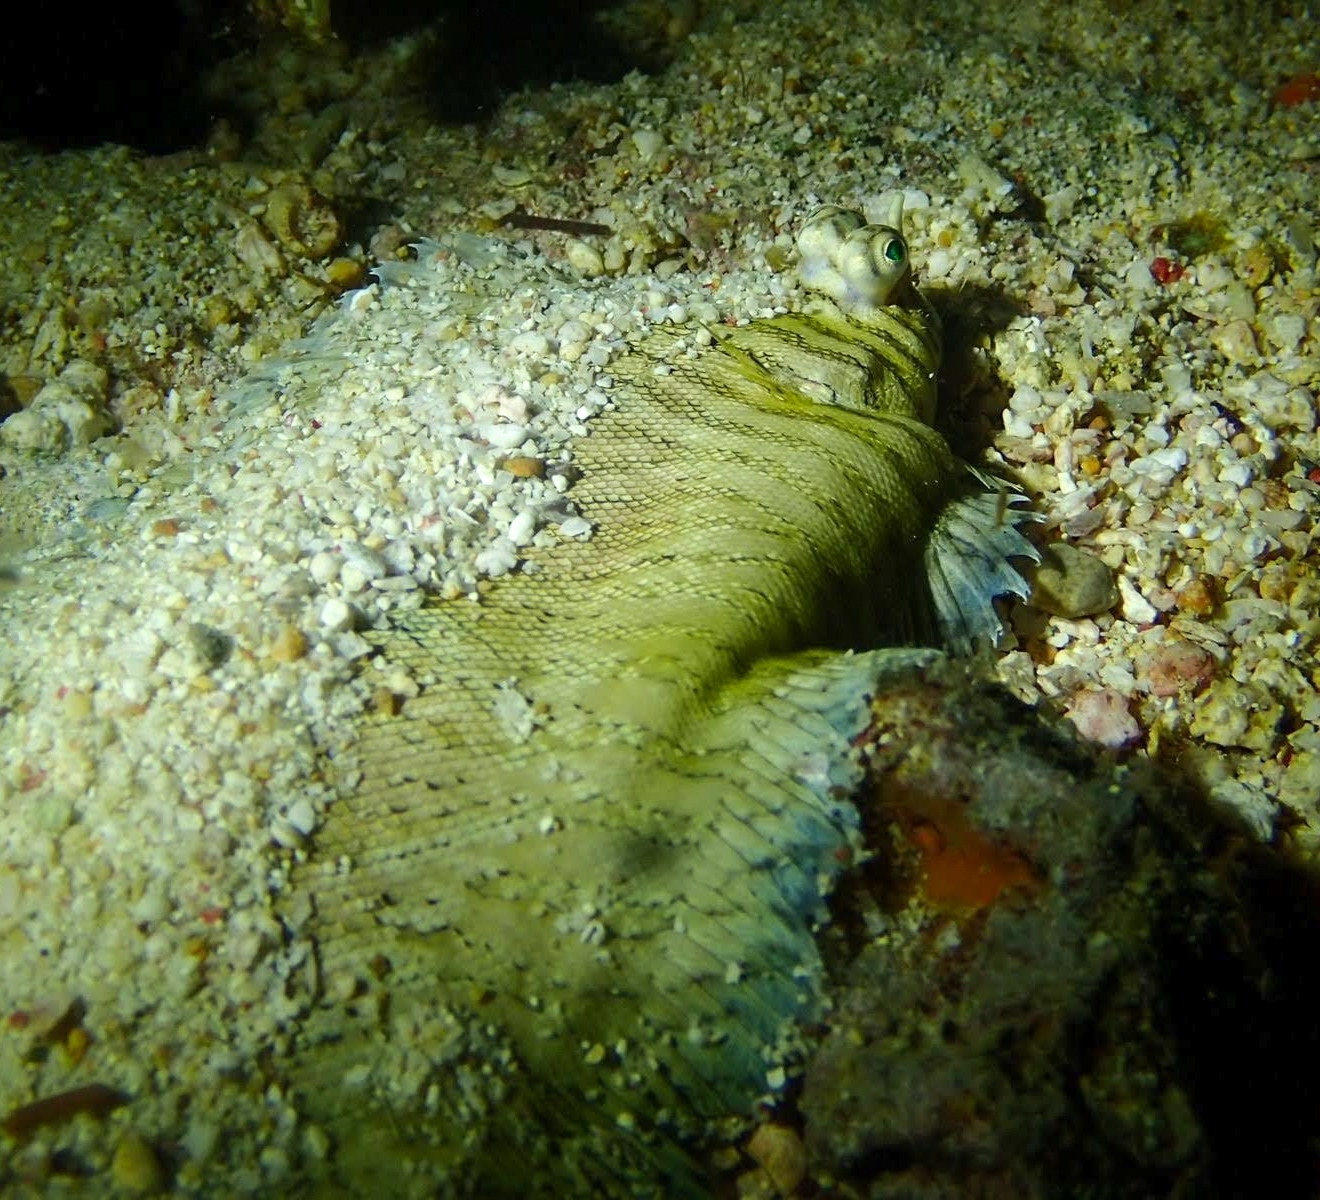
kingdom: Animalia
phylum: Chordata
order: Pleuronectiformes
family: Soleidae
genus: Soleichthys
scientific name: Soleichthys heterorhinos
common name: Banded sole
